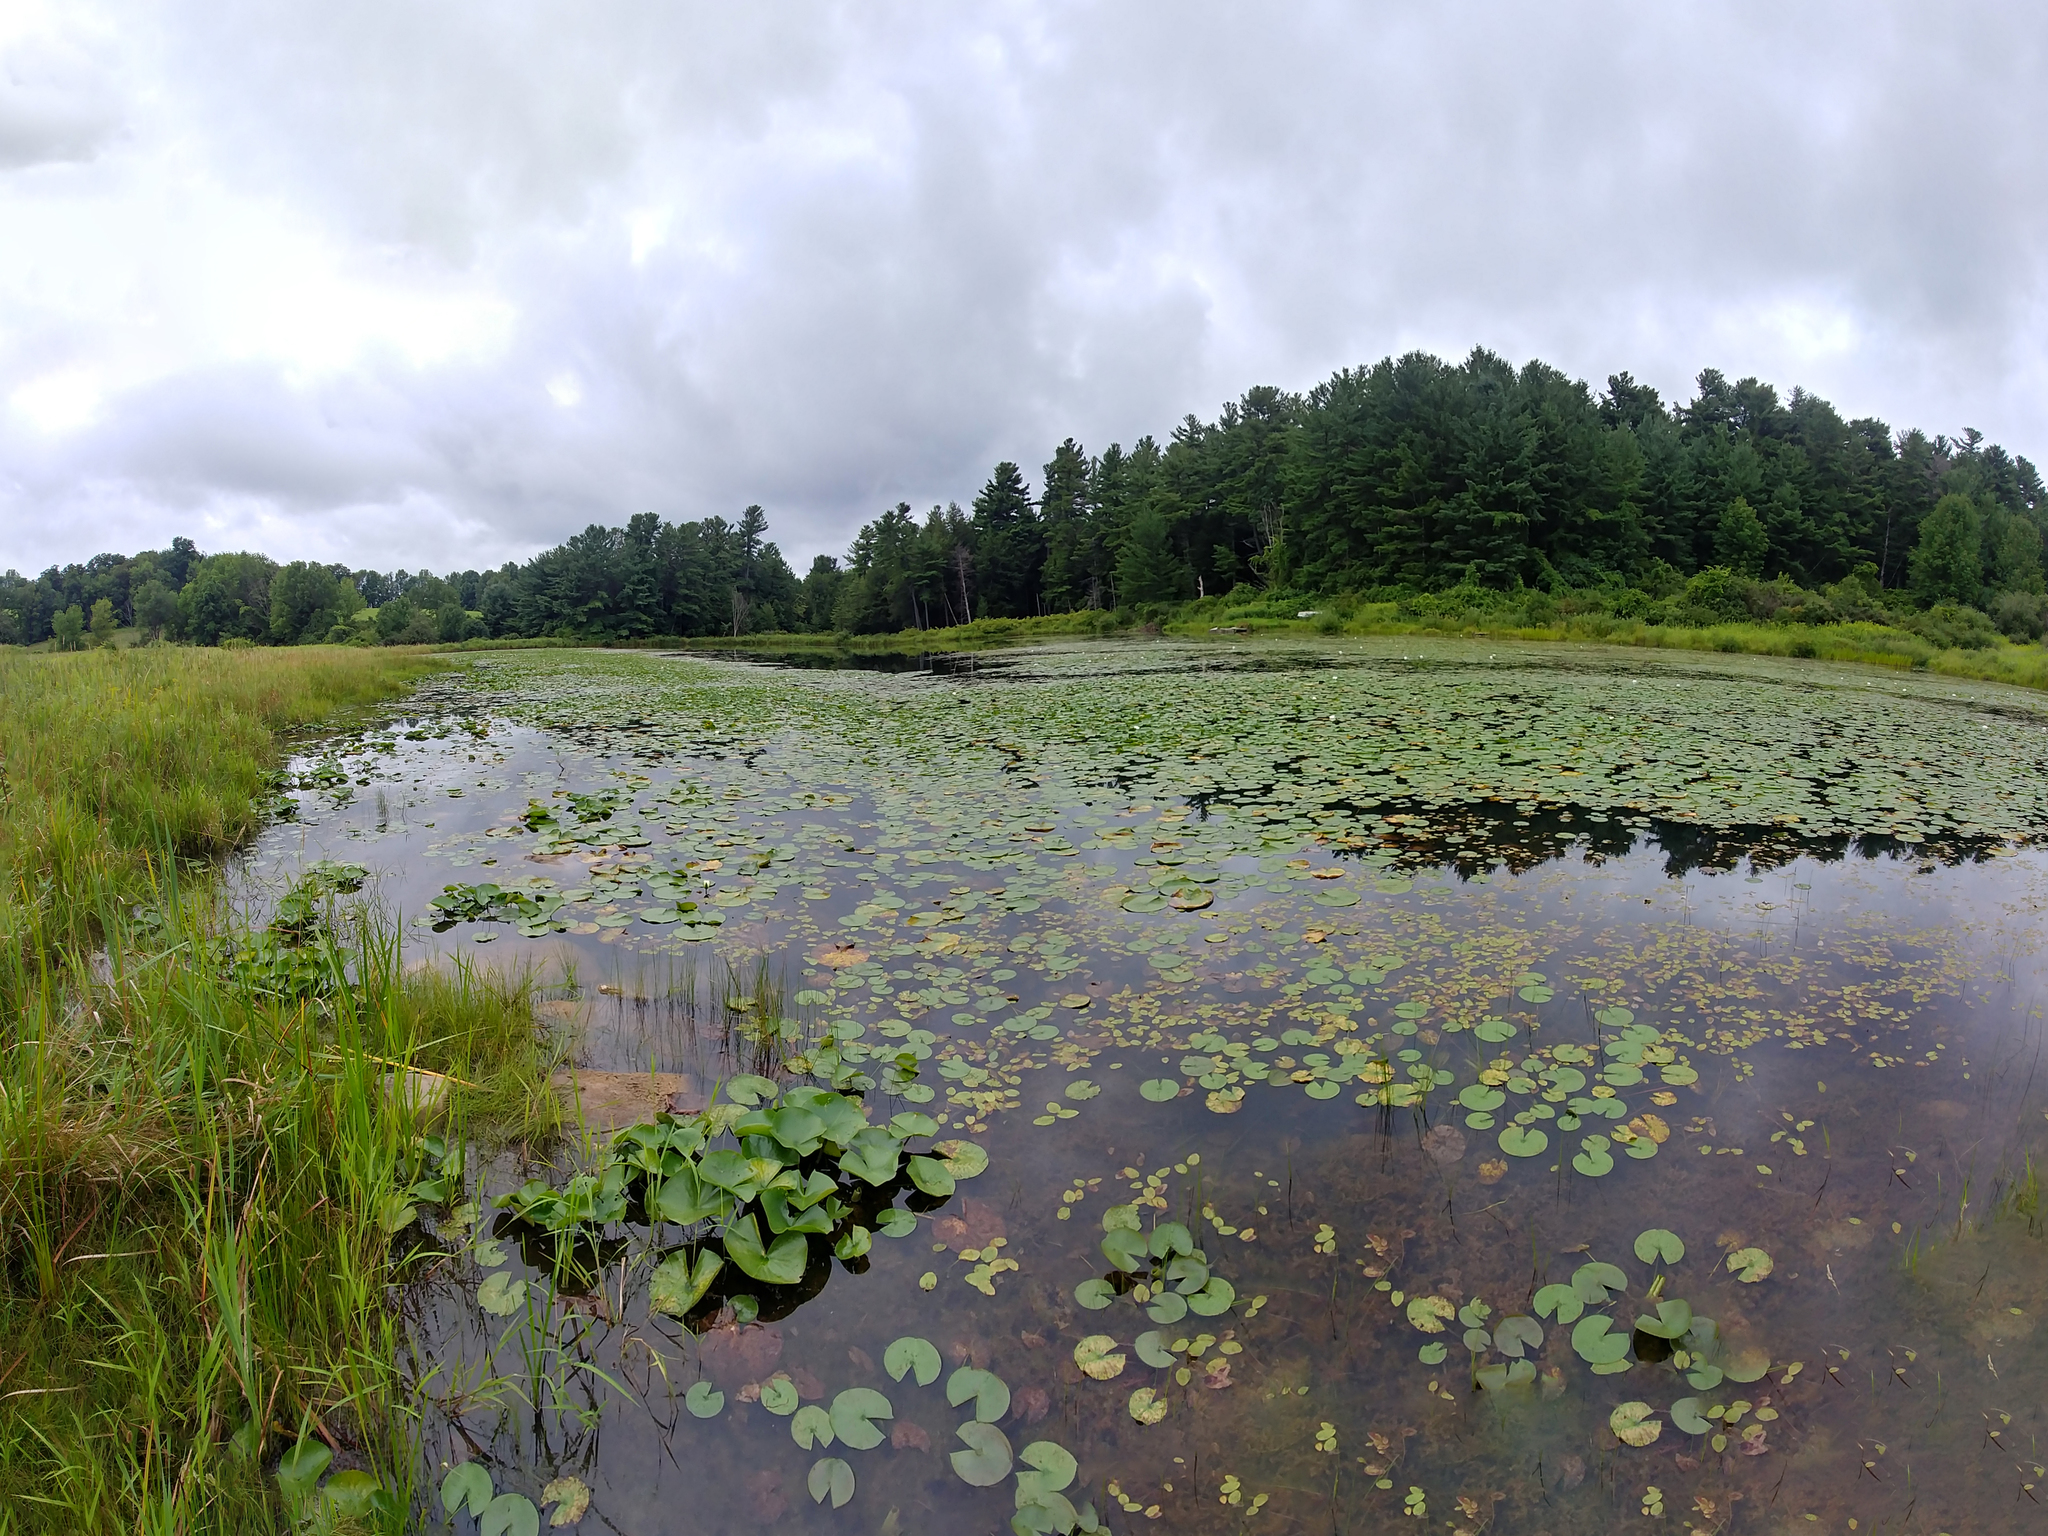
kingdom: Plantae
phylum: Tracheophyta
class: Magnoliopsida
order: Nymphaeales
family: Nymphaeaceae
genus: Nymphaea
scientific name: Nymphaea odorata
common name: Fragrant water-lily
